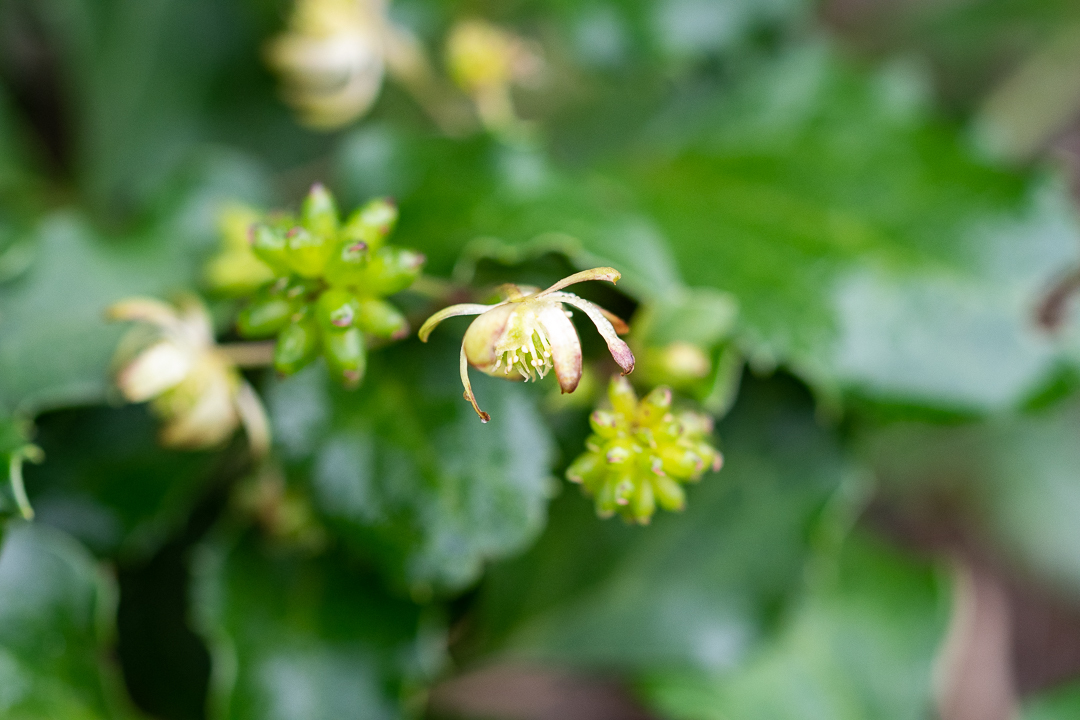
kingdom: Plantae
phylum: Tracheophyta
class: Magnoliopsida
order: Ranunculales
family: Ranunculaceae
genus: Knowltonia
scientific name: Knowltonia vesicatoria
